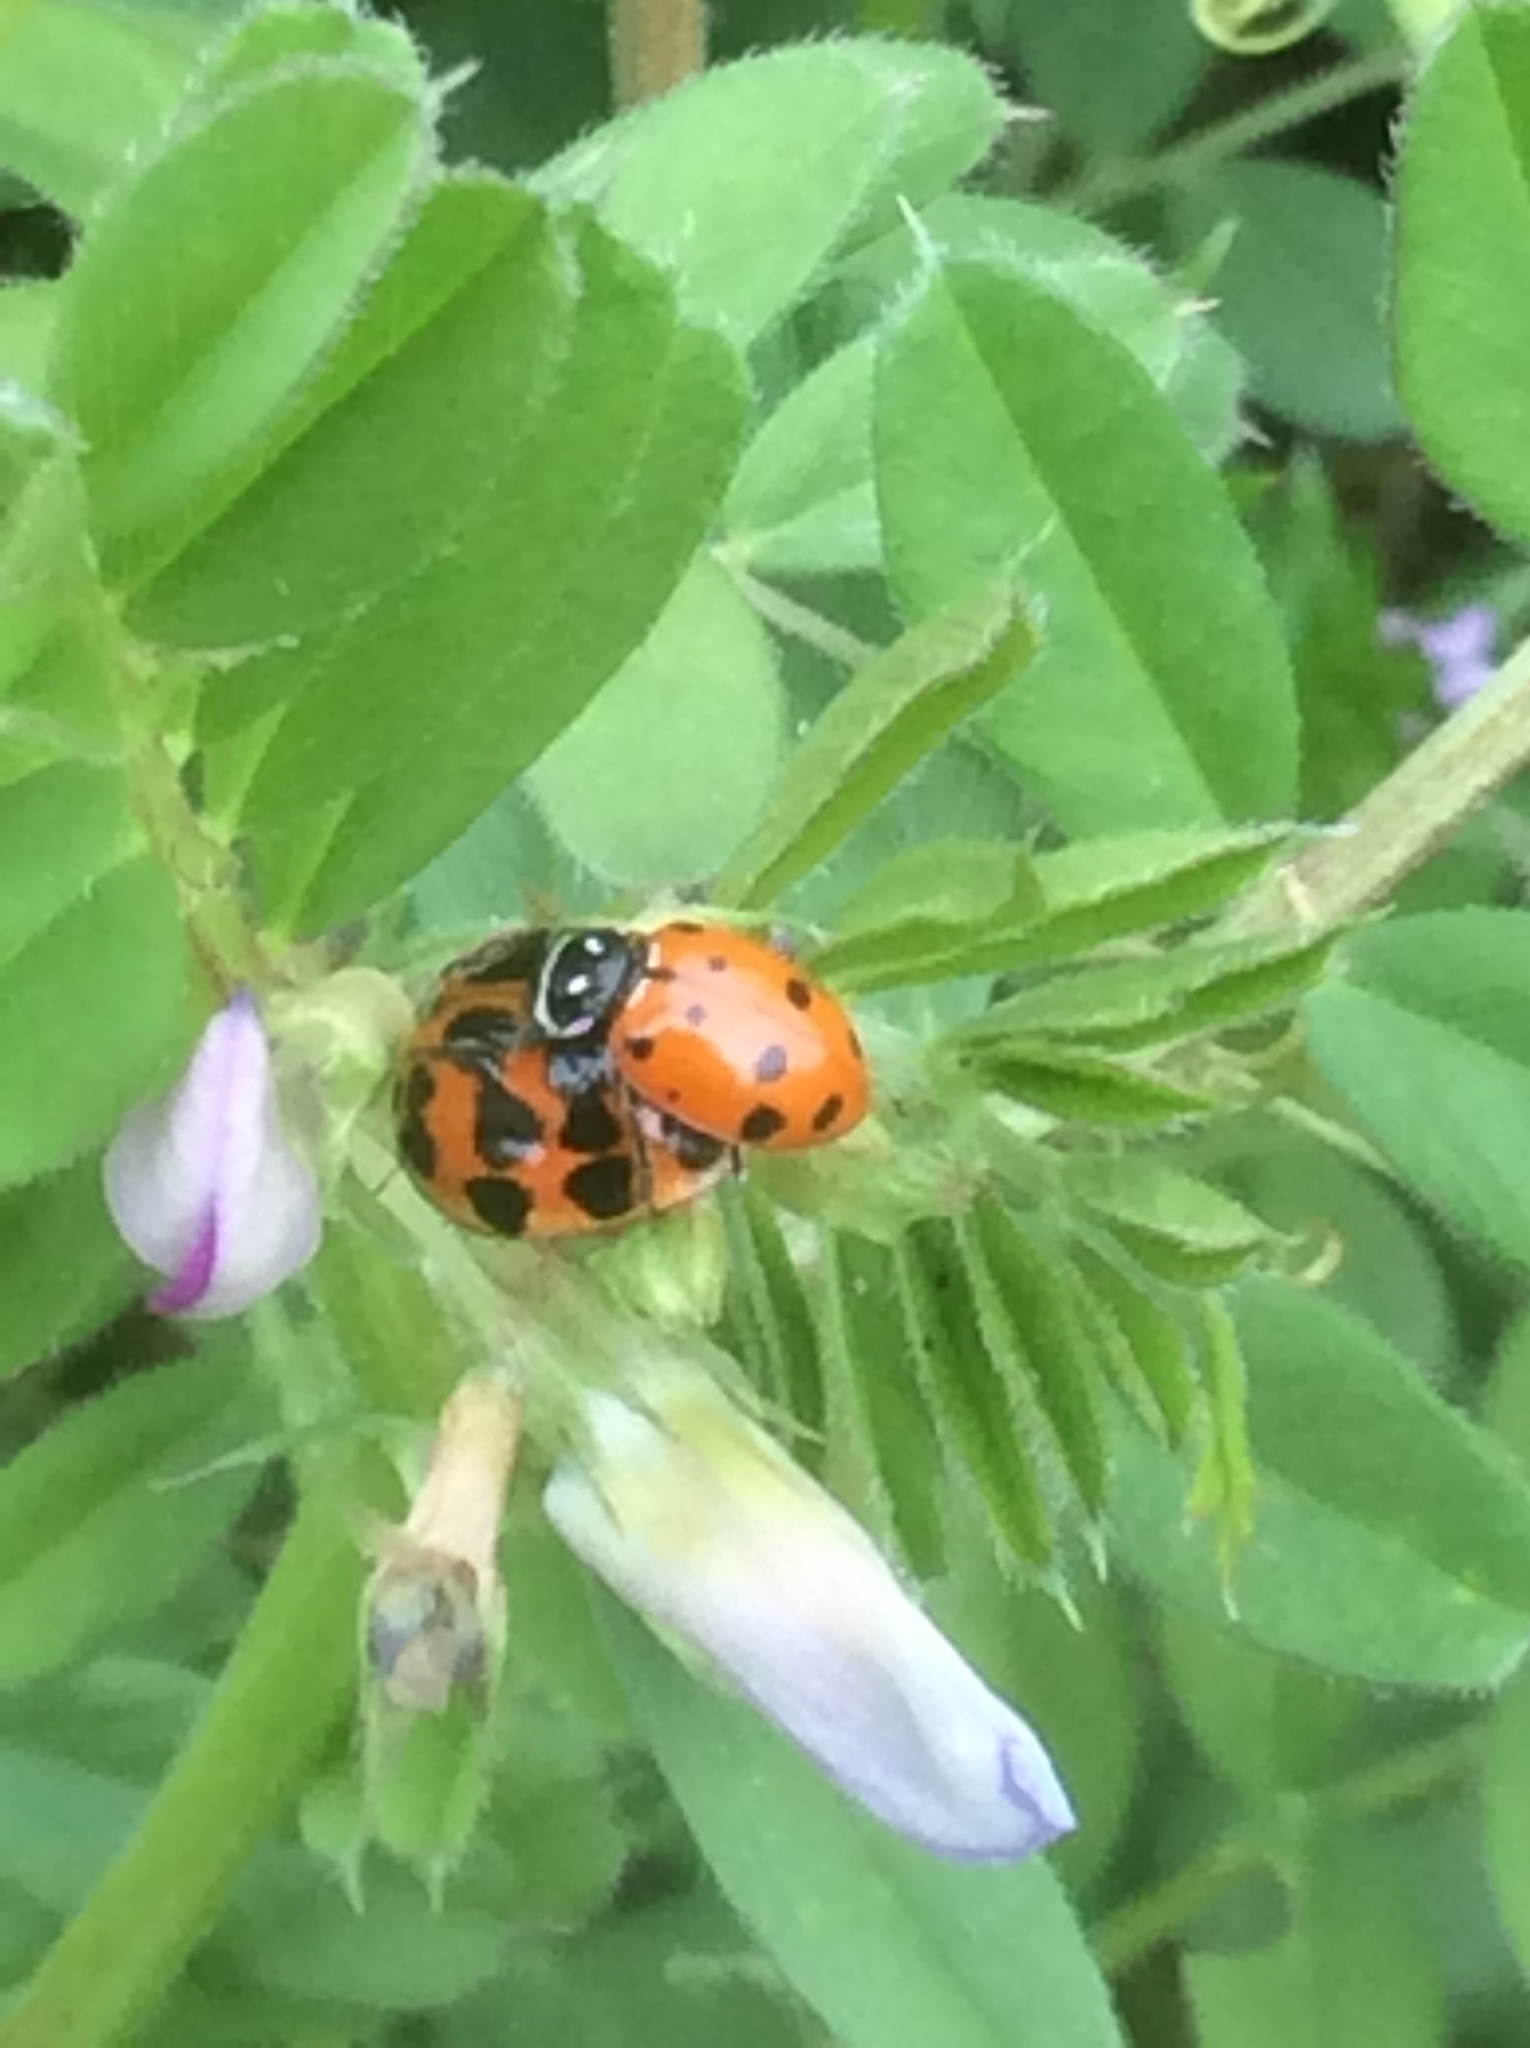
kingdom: Animalia
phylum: Arthropoda
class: Insecta
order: Coleoptera
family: Coccinellidae
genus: Hippodamia
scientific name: Hippodamia convergens
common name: Convergent lady beetle
